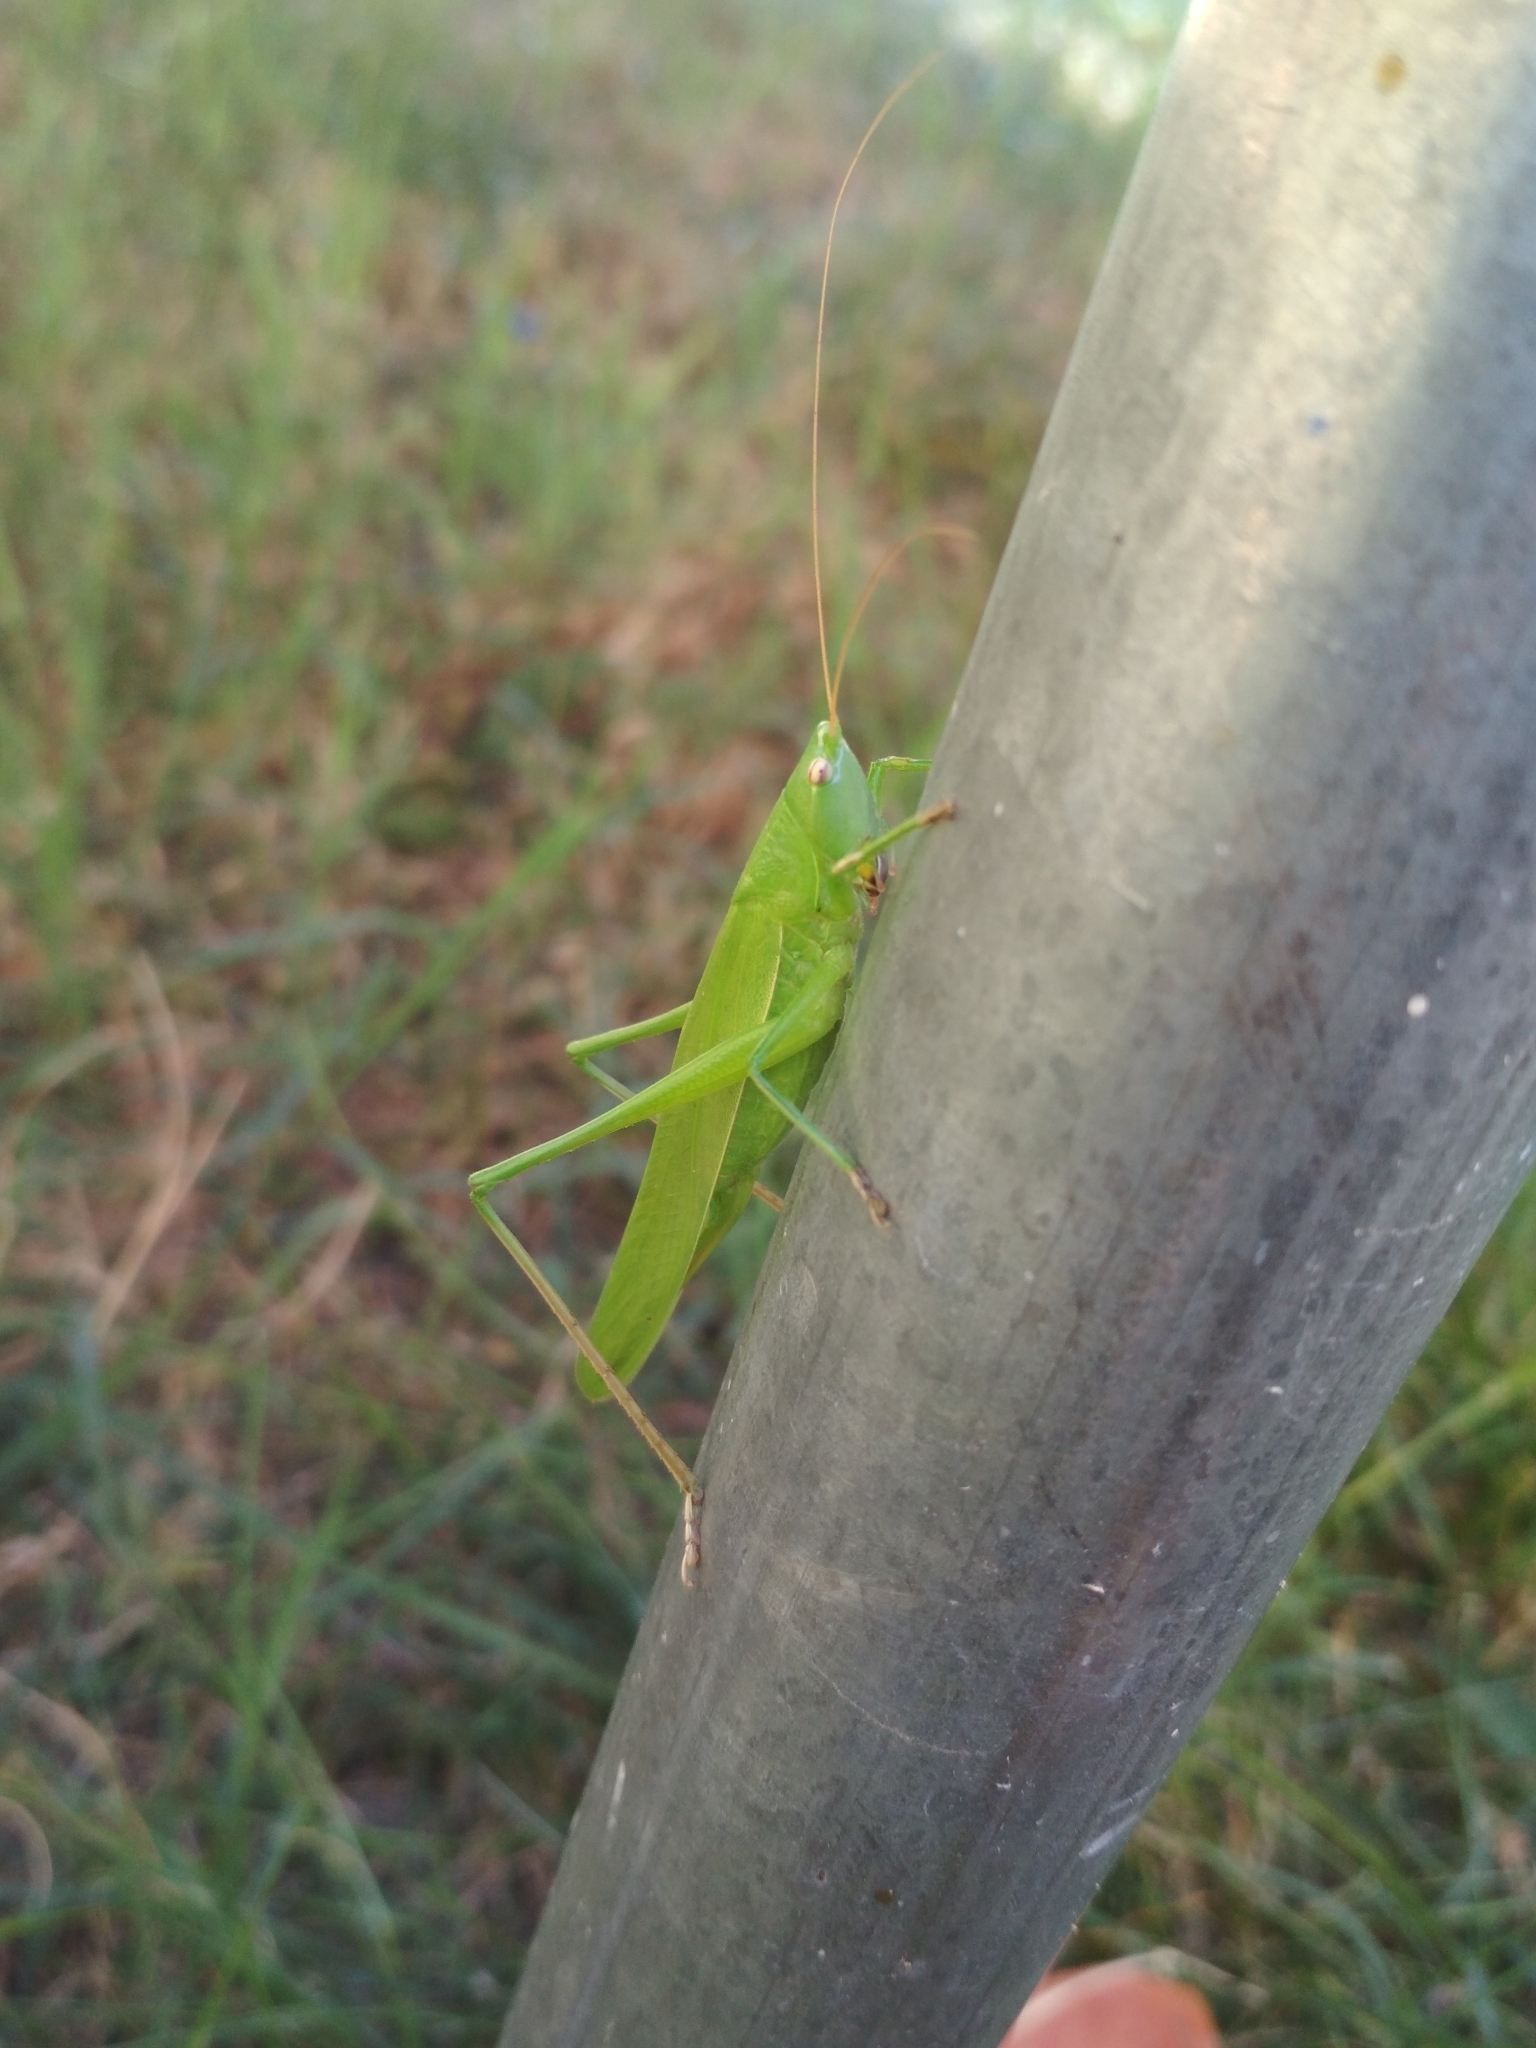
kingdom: Animalia
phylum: Arthropoda
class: Insecta
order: Orthoptera
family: Tettigoniidae
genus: Ruspolia
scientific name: Ruspolia nitidula
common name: Large conehead
